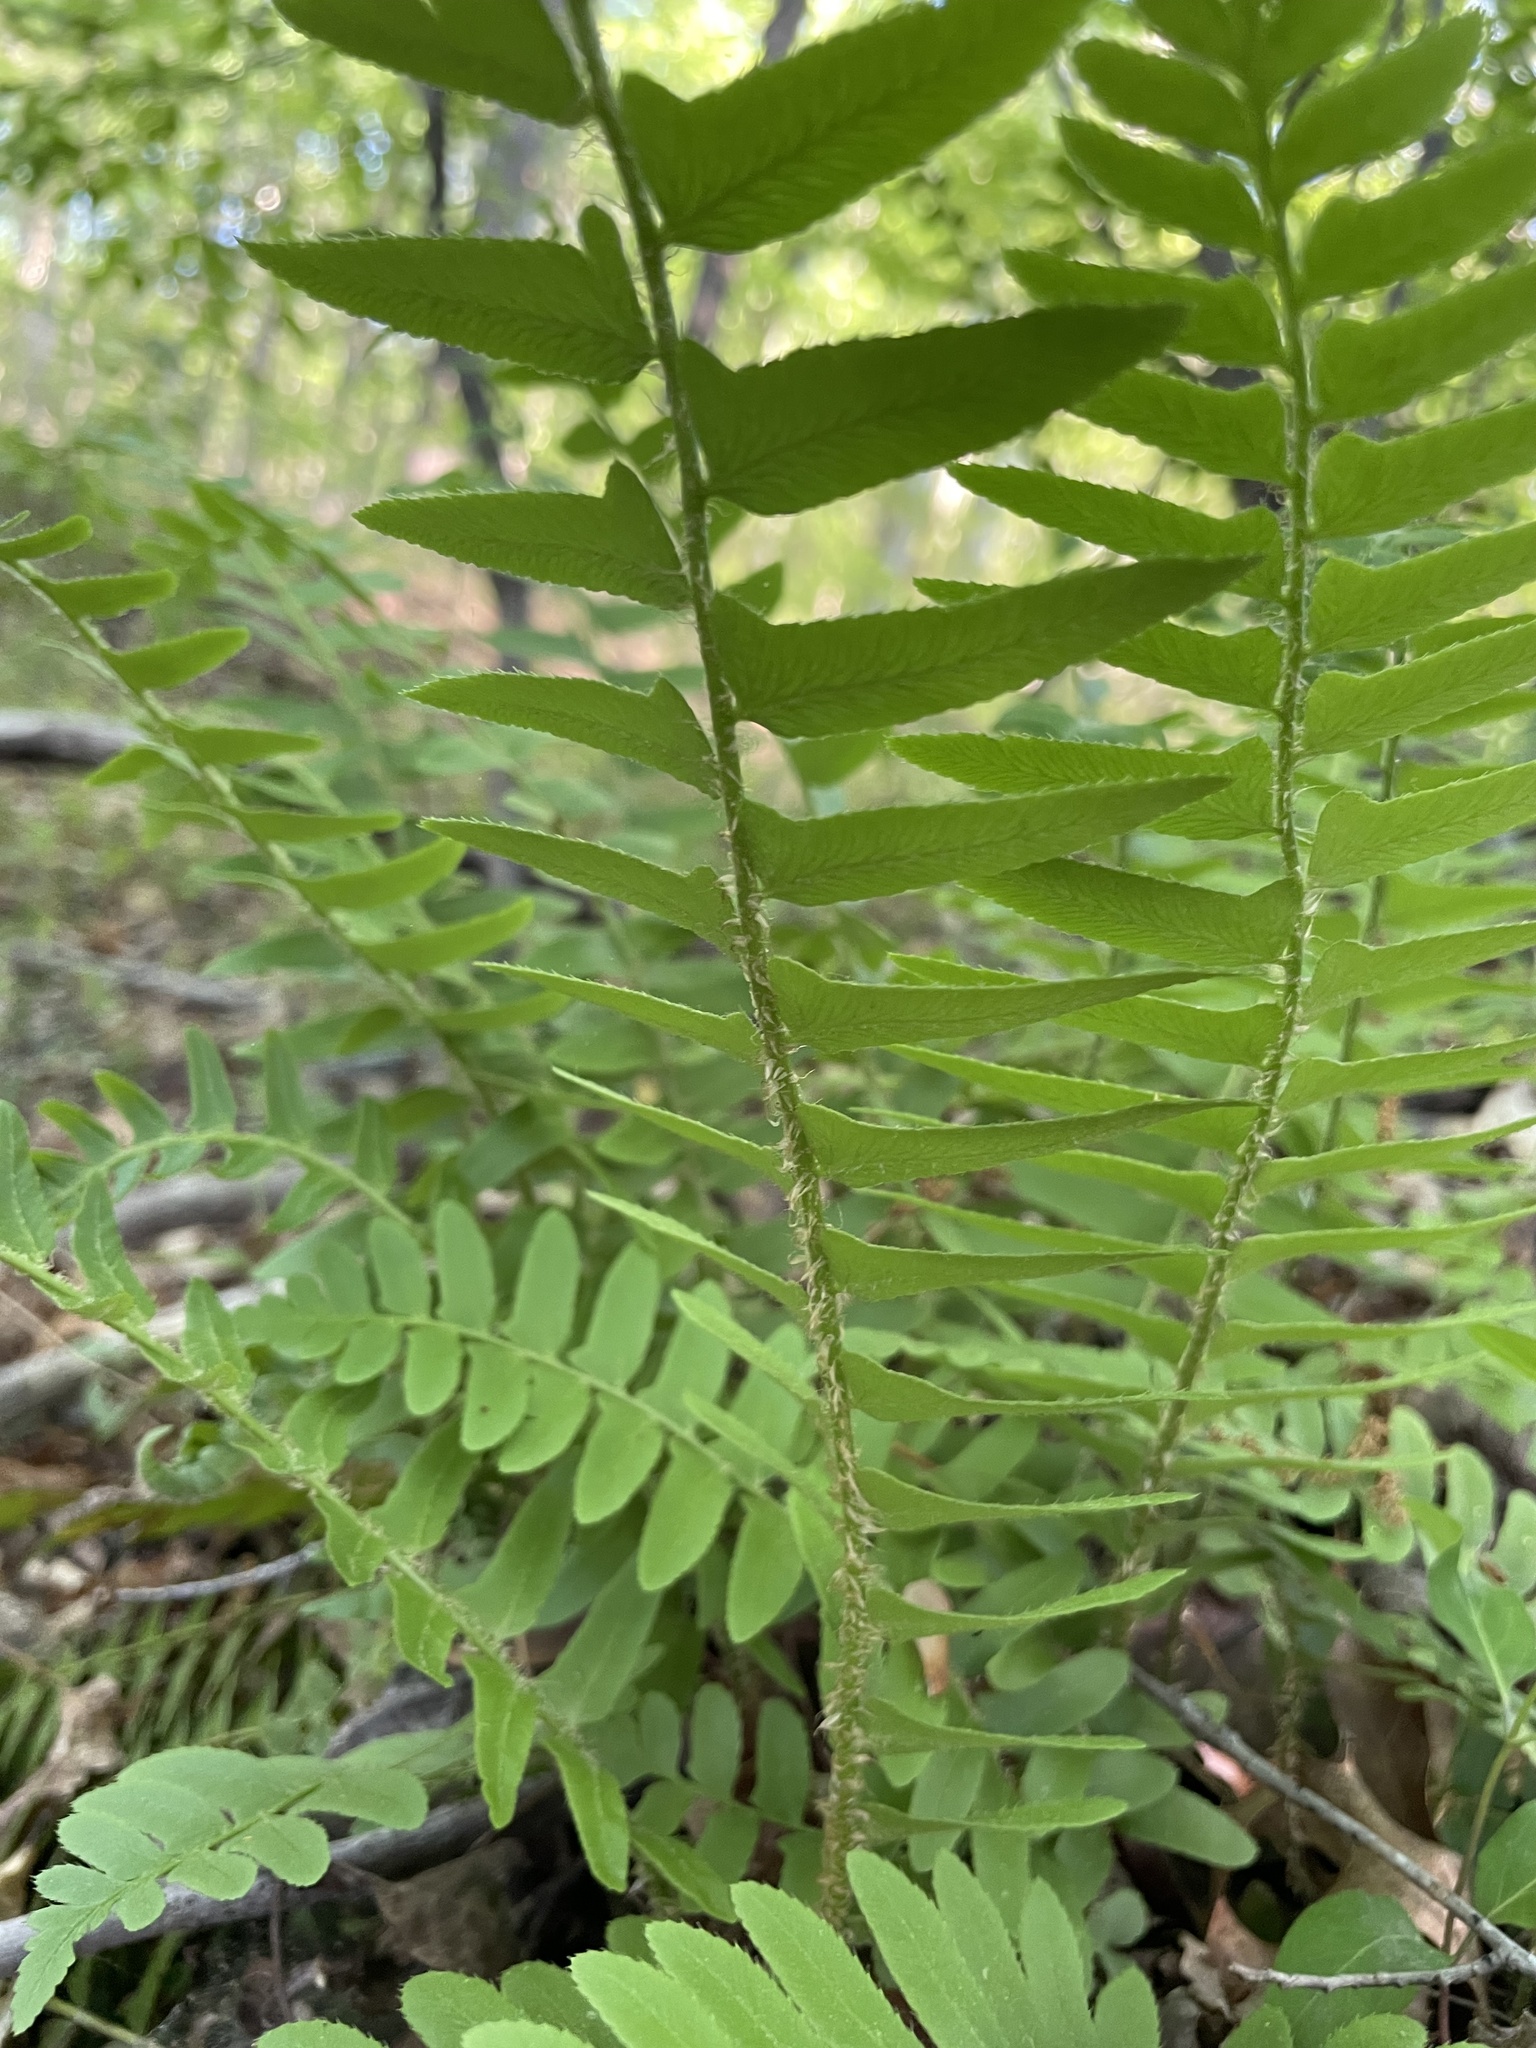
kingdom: Plantae
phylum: Tracheophyta
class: Polypodiopsida
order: Polypodiales
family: Dryopteridaceae
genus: Polystichum
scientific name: Polystichum acrostichoides
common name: Christmas fern
